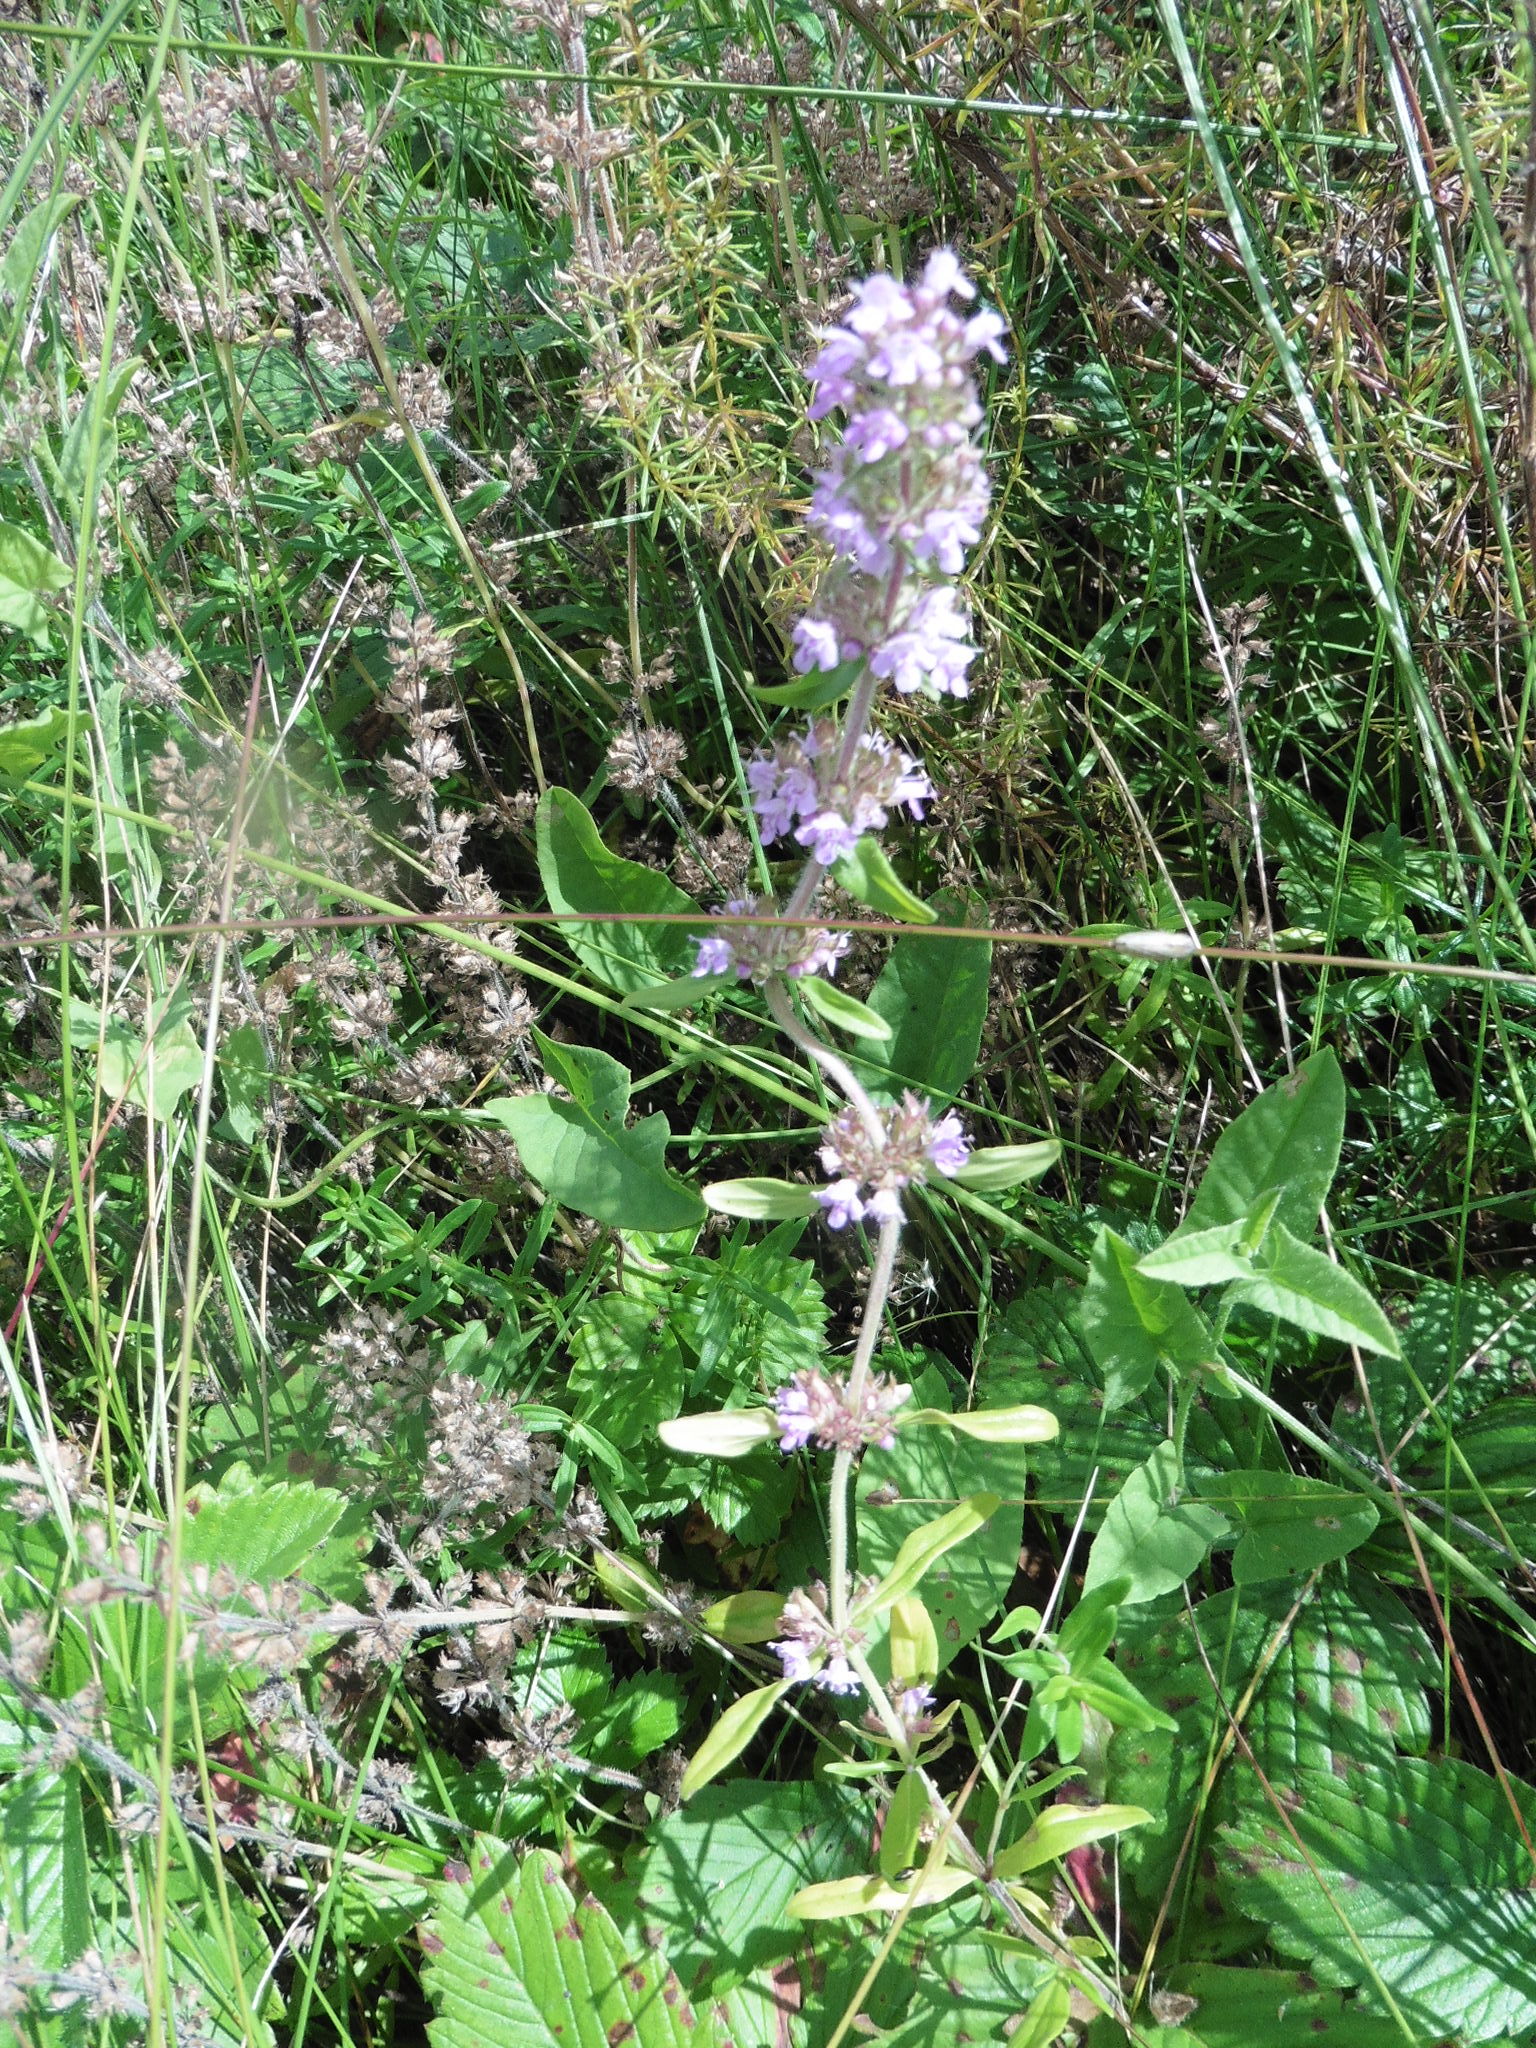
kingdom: Plantae
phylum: Tracheophyta
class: Magnoliopsida
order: Lamiales
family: Lamiaceae
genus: Thymus
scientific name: Thymus pannonicus
